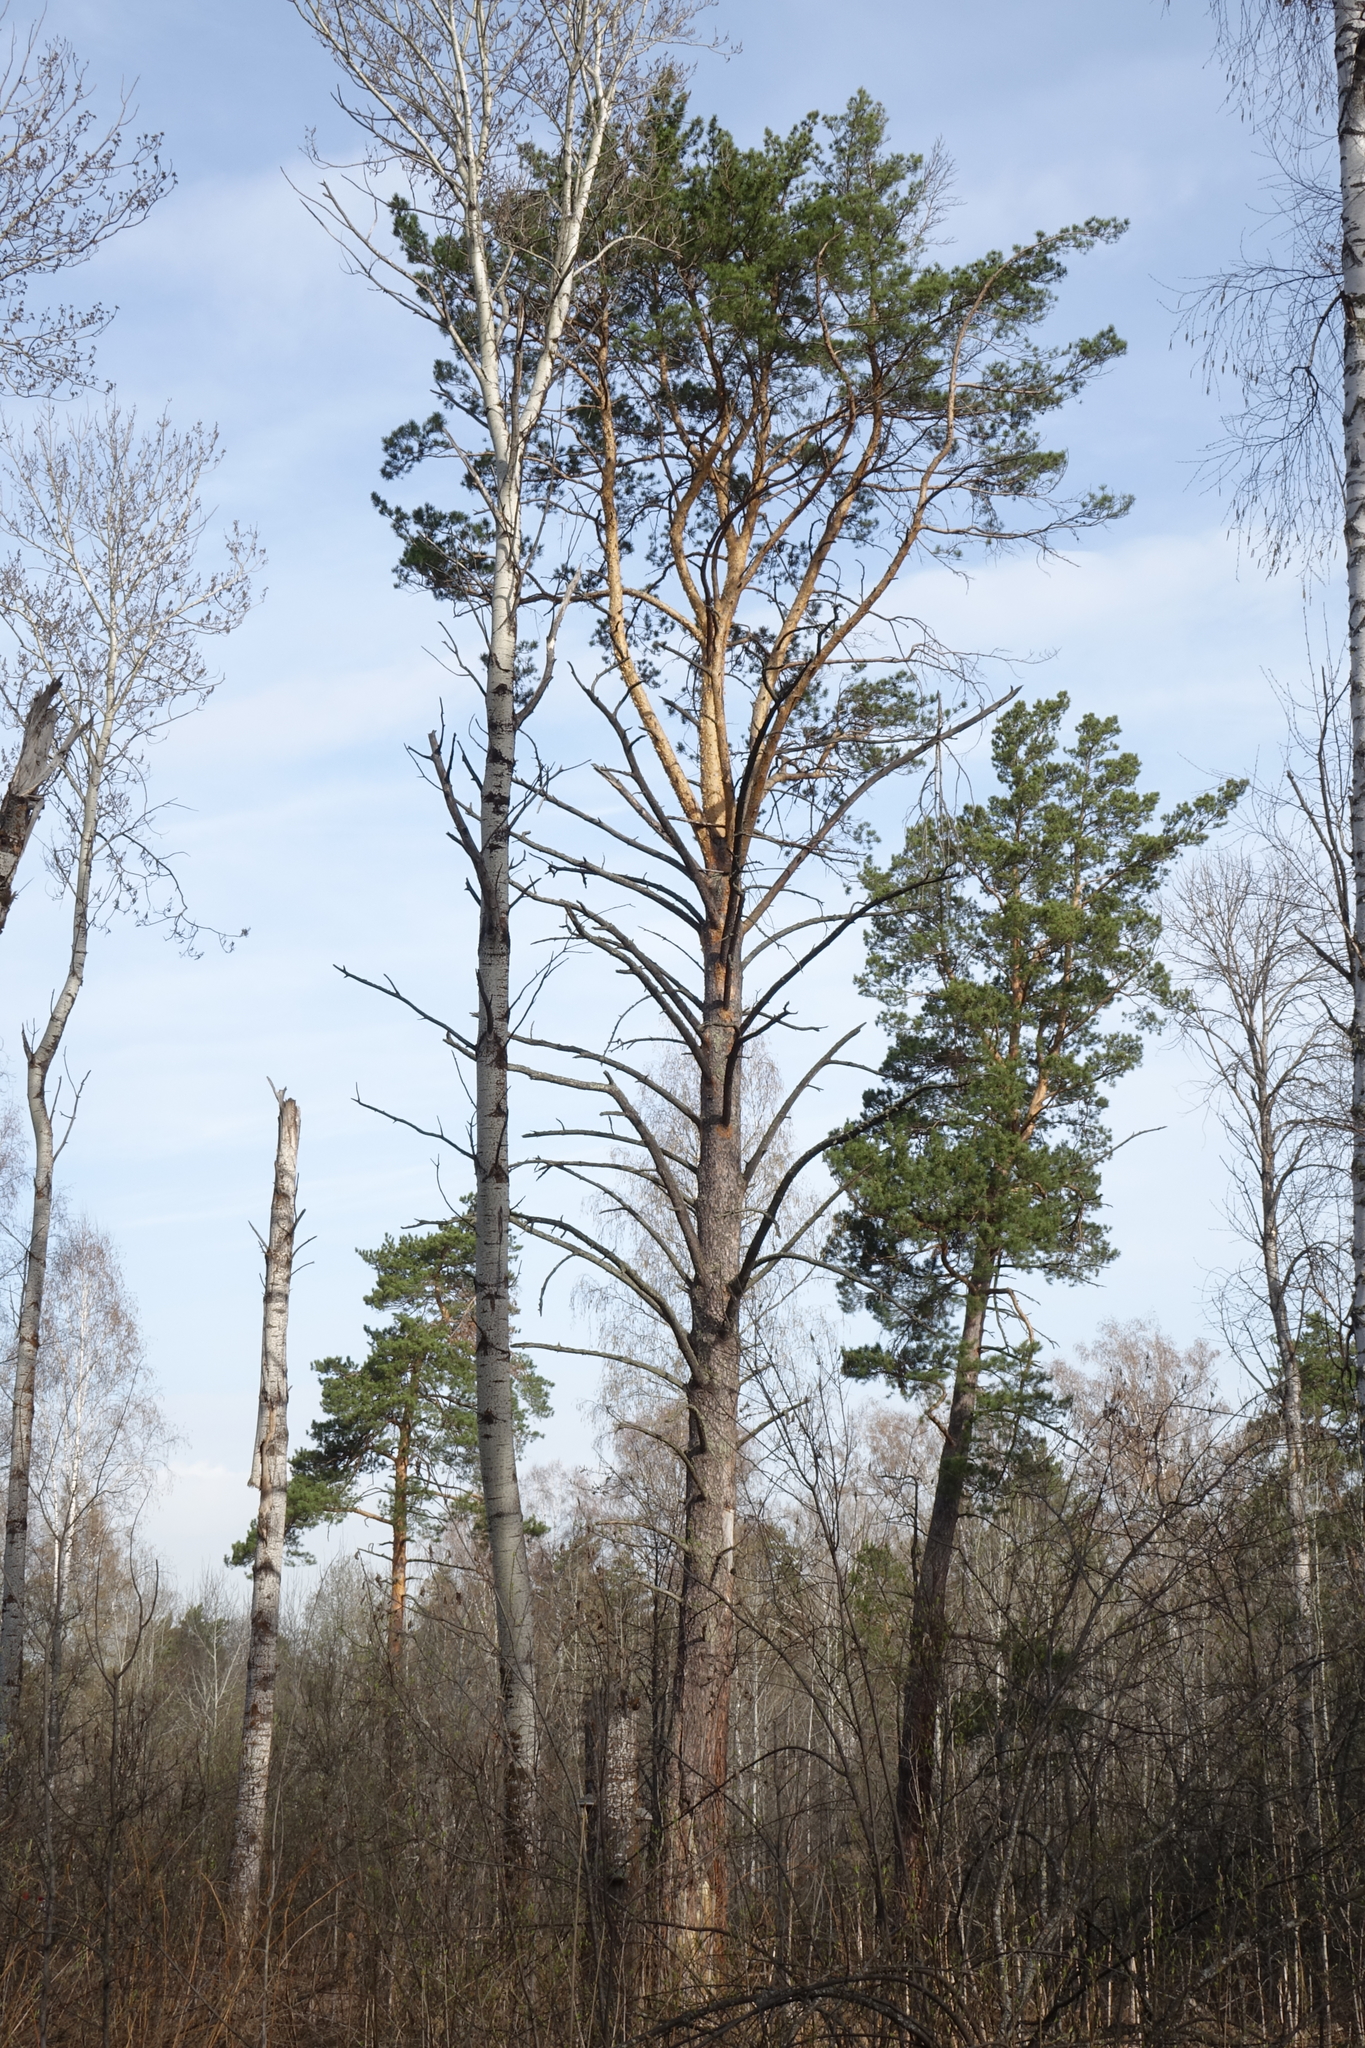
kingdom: Plantae
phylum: Tracheophyta
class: Pinopsida
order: Pinales
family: Pinaceae
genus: Pinus
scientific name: Pinus sylvestris
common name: Scots pine
